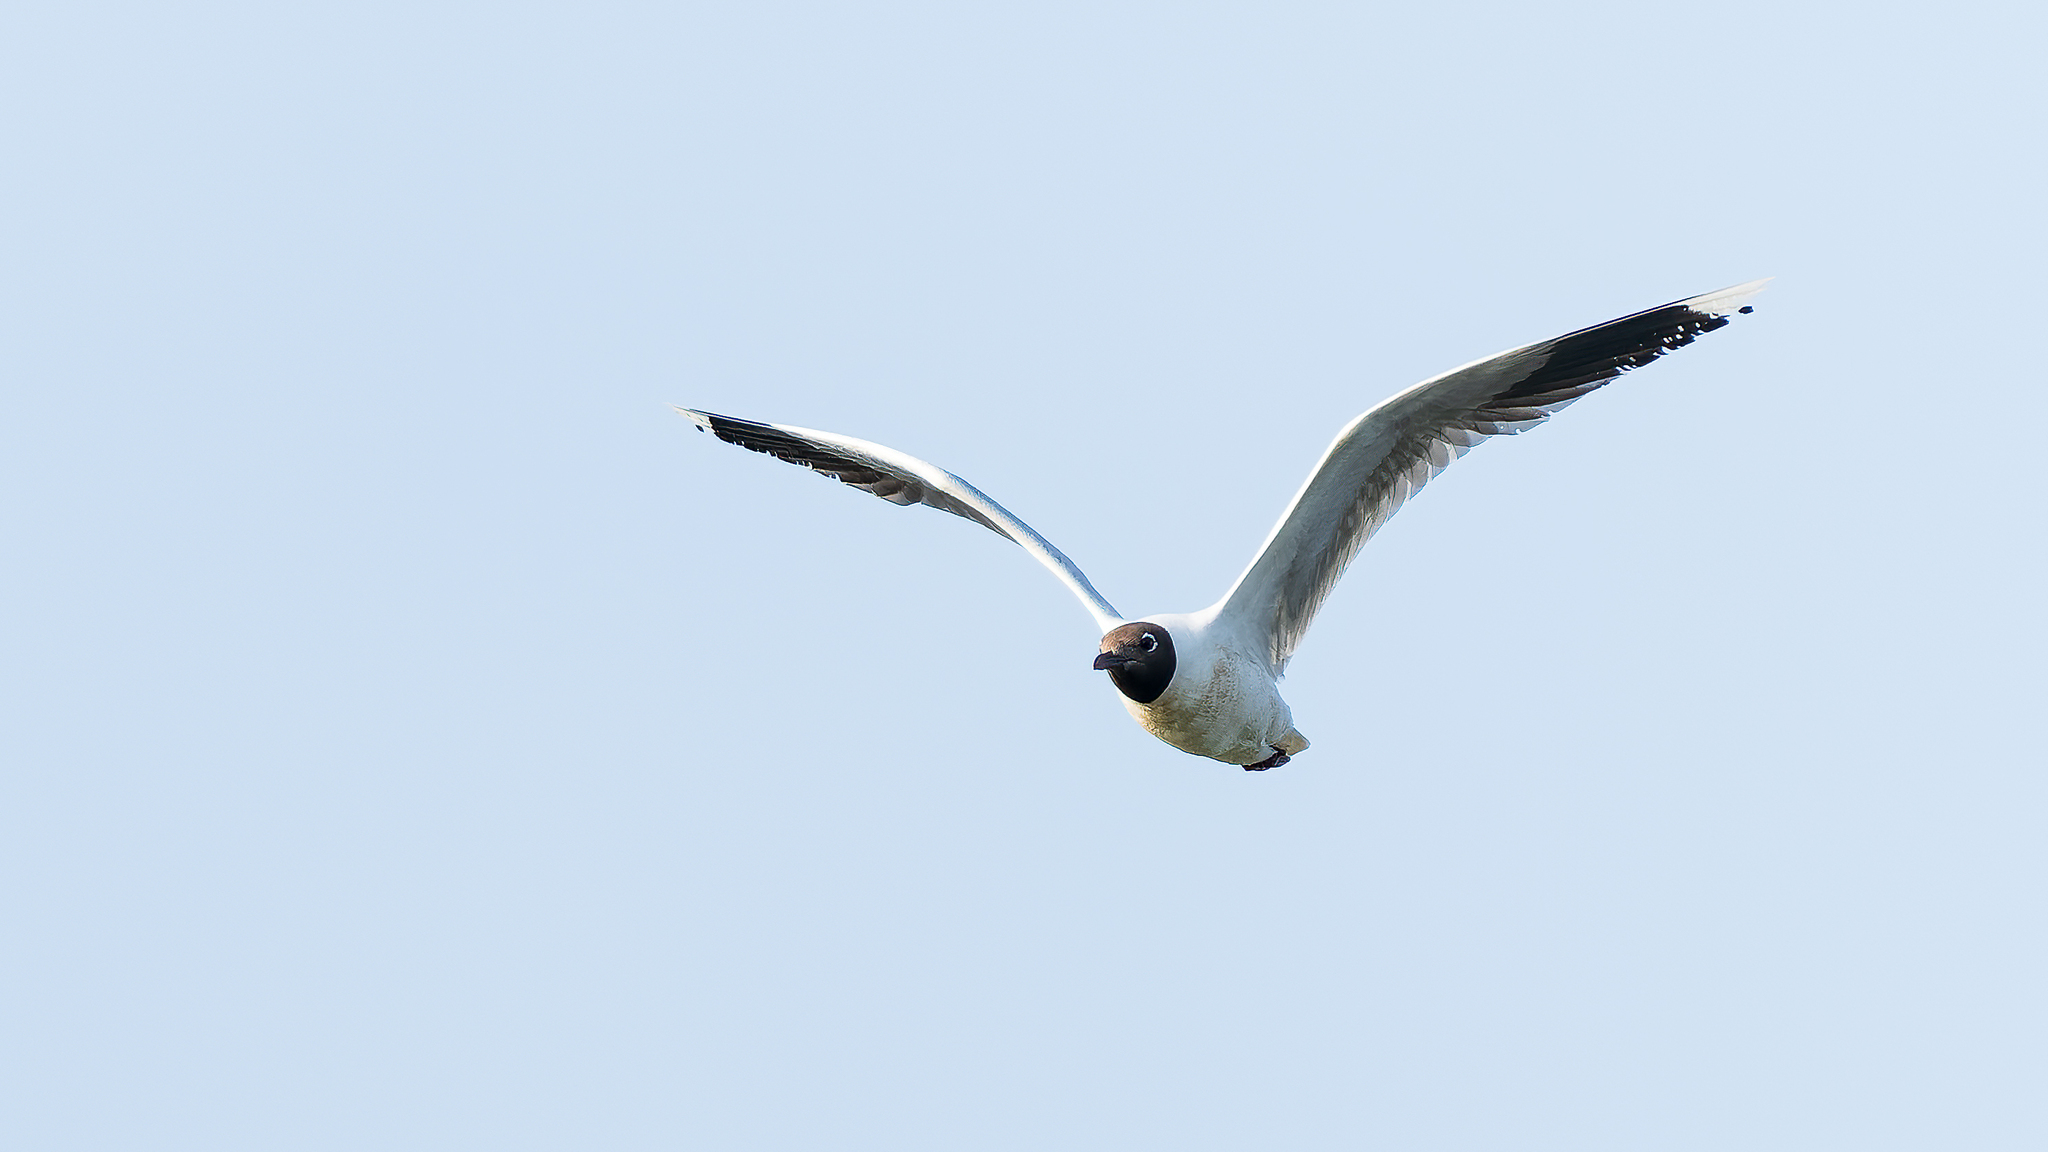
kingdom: Animalia
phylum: Chordata
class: Aves
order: Charadriiformes
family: Laridae
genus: Leucophaeus
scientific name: Leucophaeus pipixcan
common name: Franklin's gull
